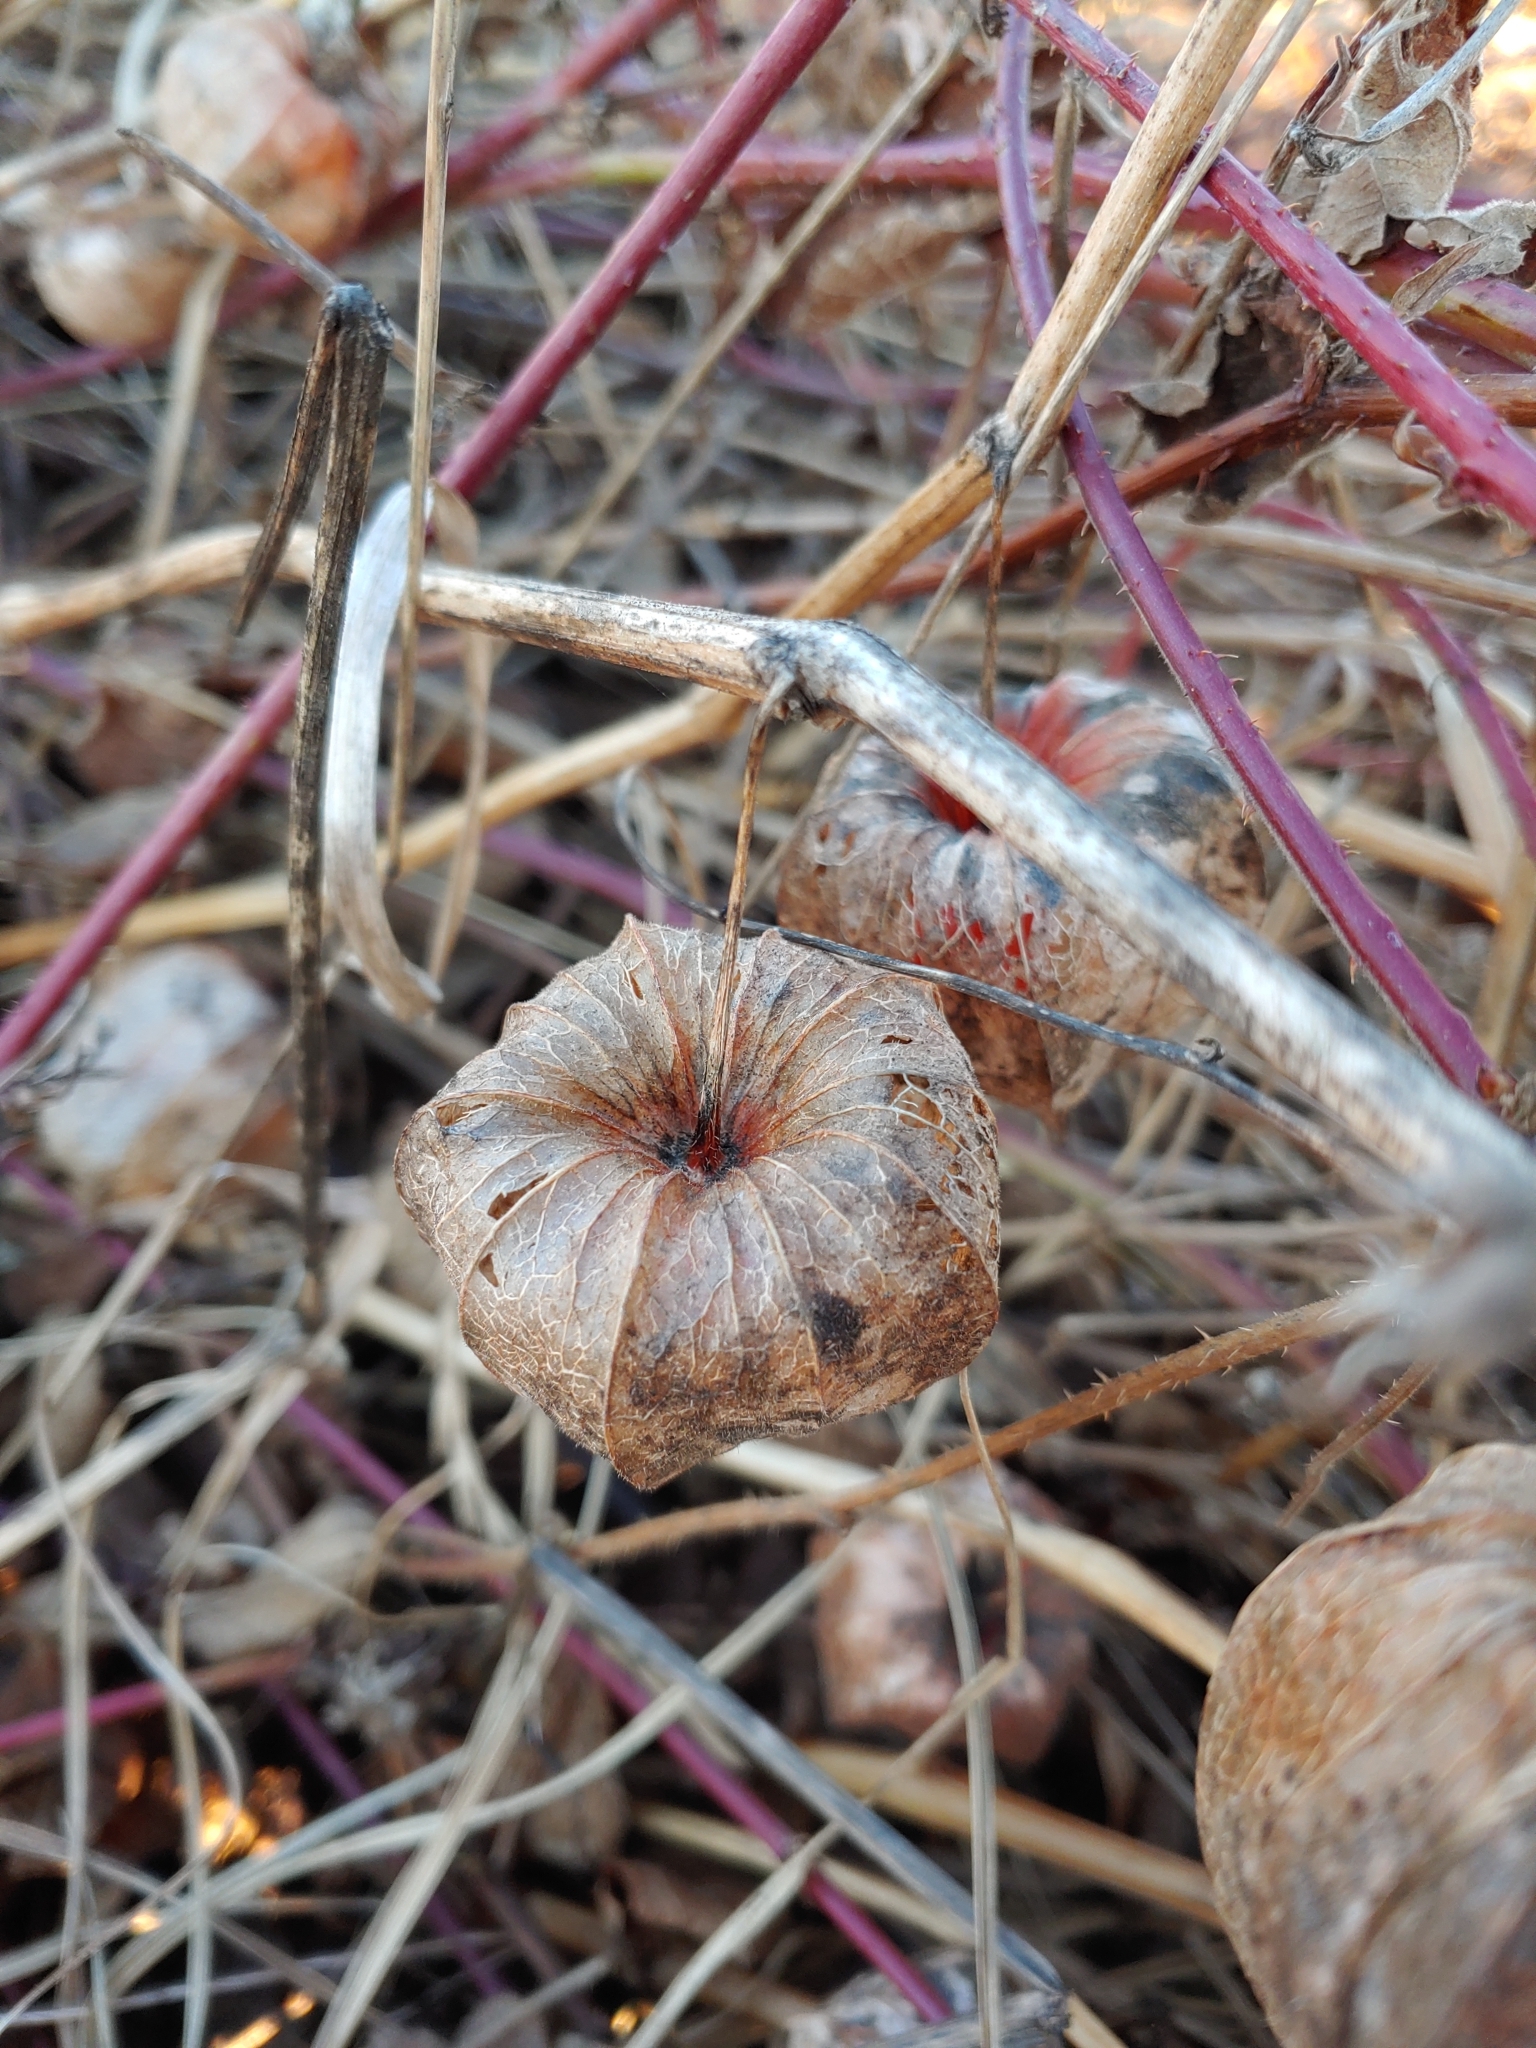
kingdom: Plantae
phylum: Tracheophyta
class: Magnoliopsida
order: Solanales
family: Solanaceae
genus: Alkekengi
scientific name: Alkekengi officinarum
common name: Japanese-lantern
